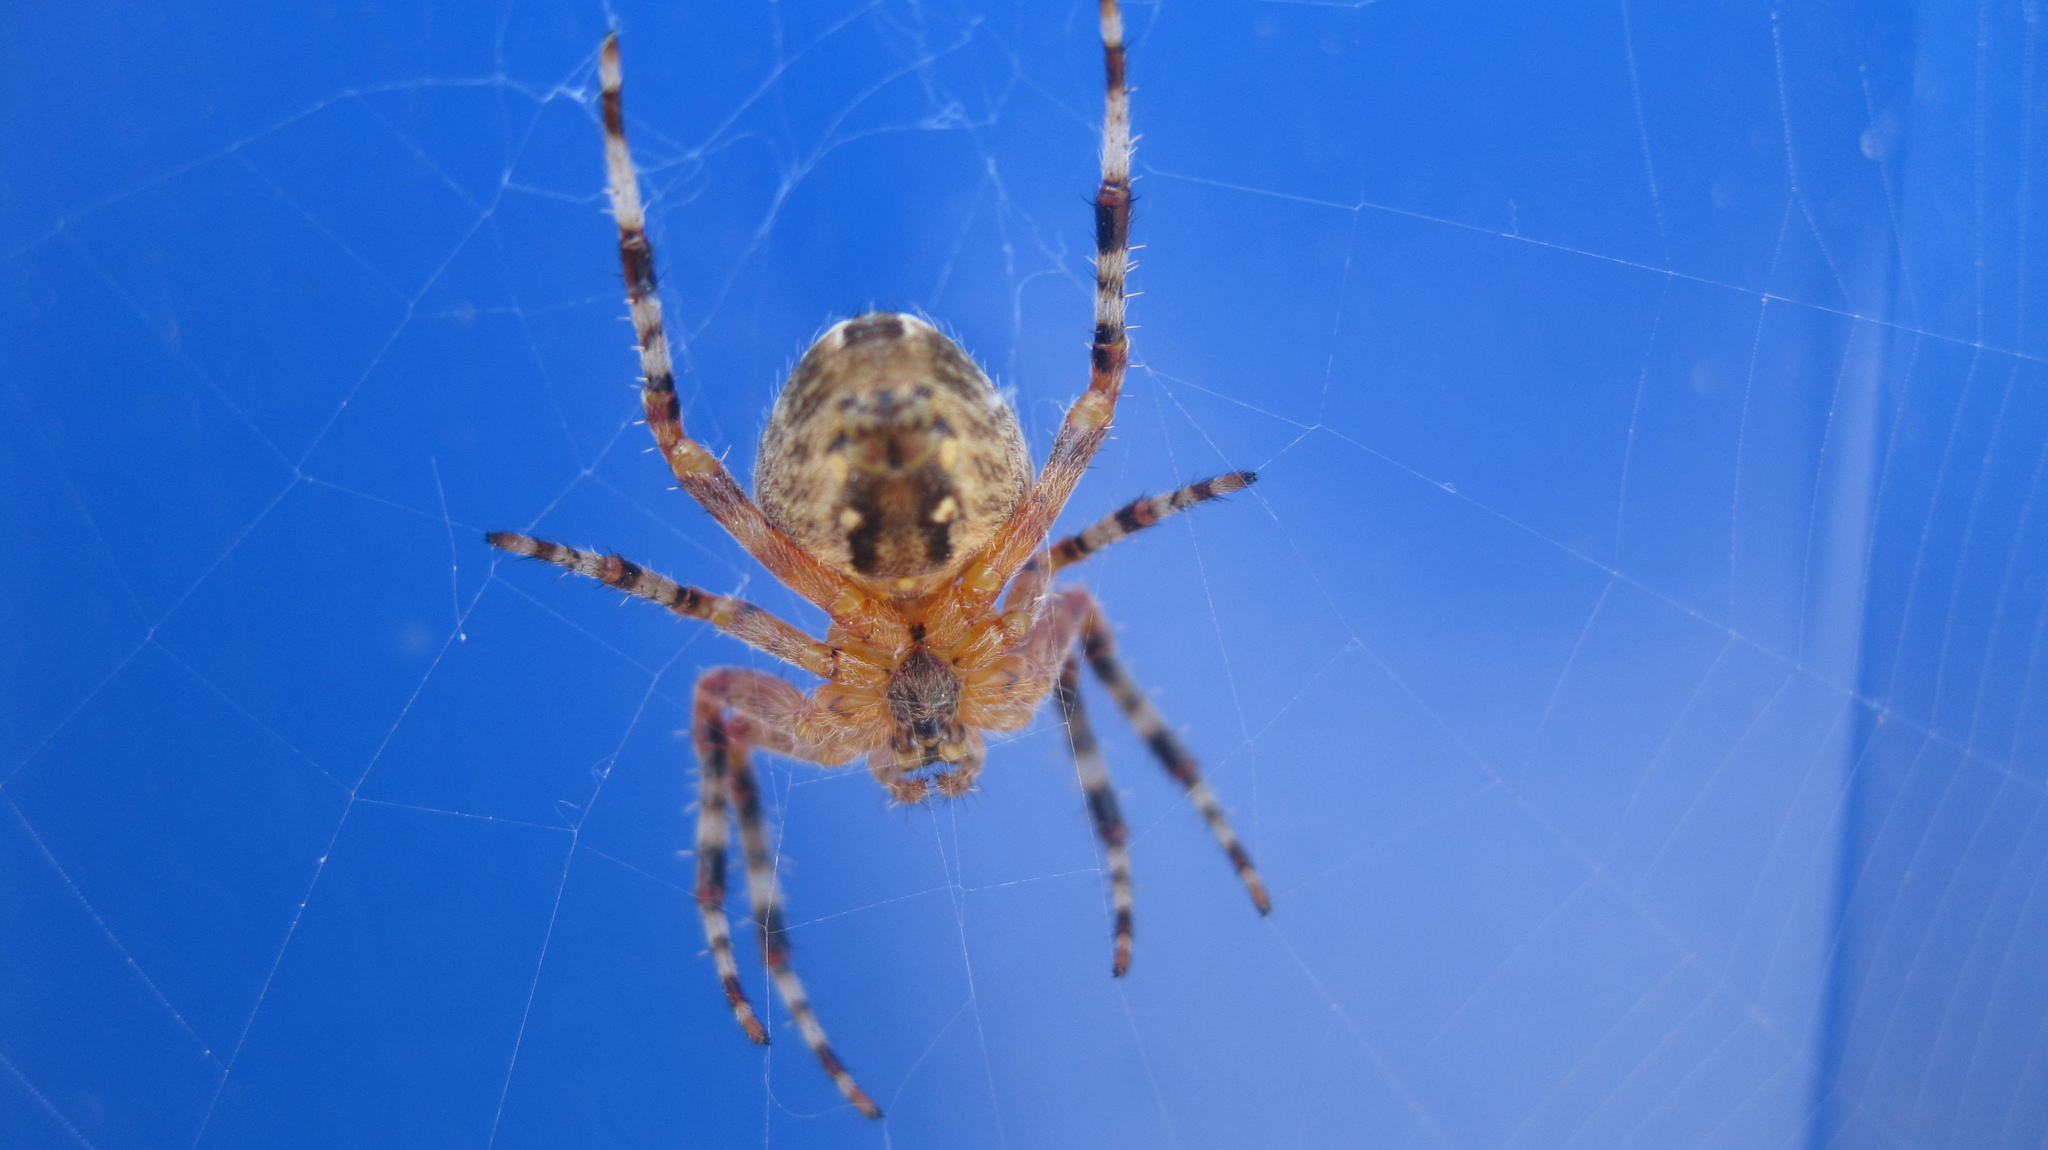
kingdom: Animalia
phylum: Arthropoda
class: Arachnida
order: Araneae
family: Araneidae
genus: Araneus
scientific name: Araneus diadematus
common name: Cross orbweaver
